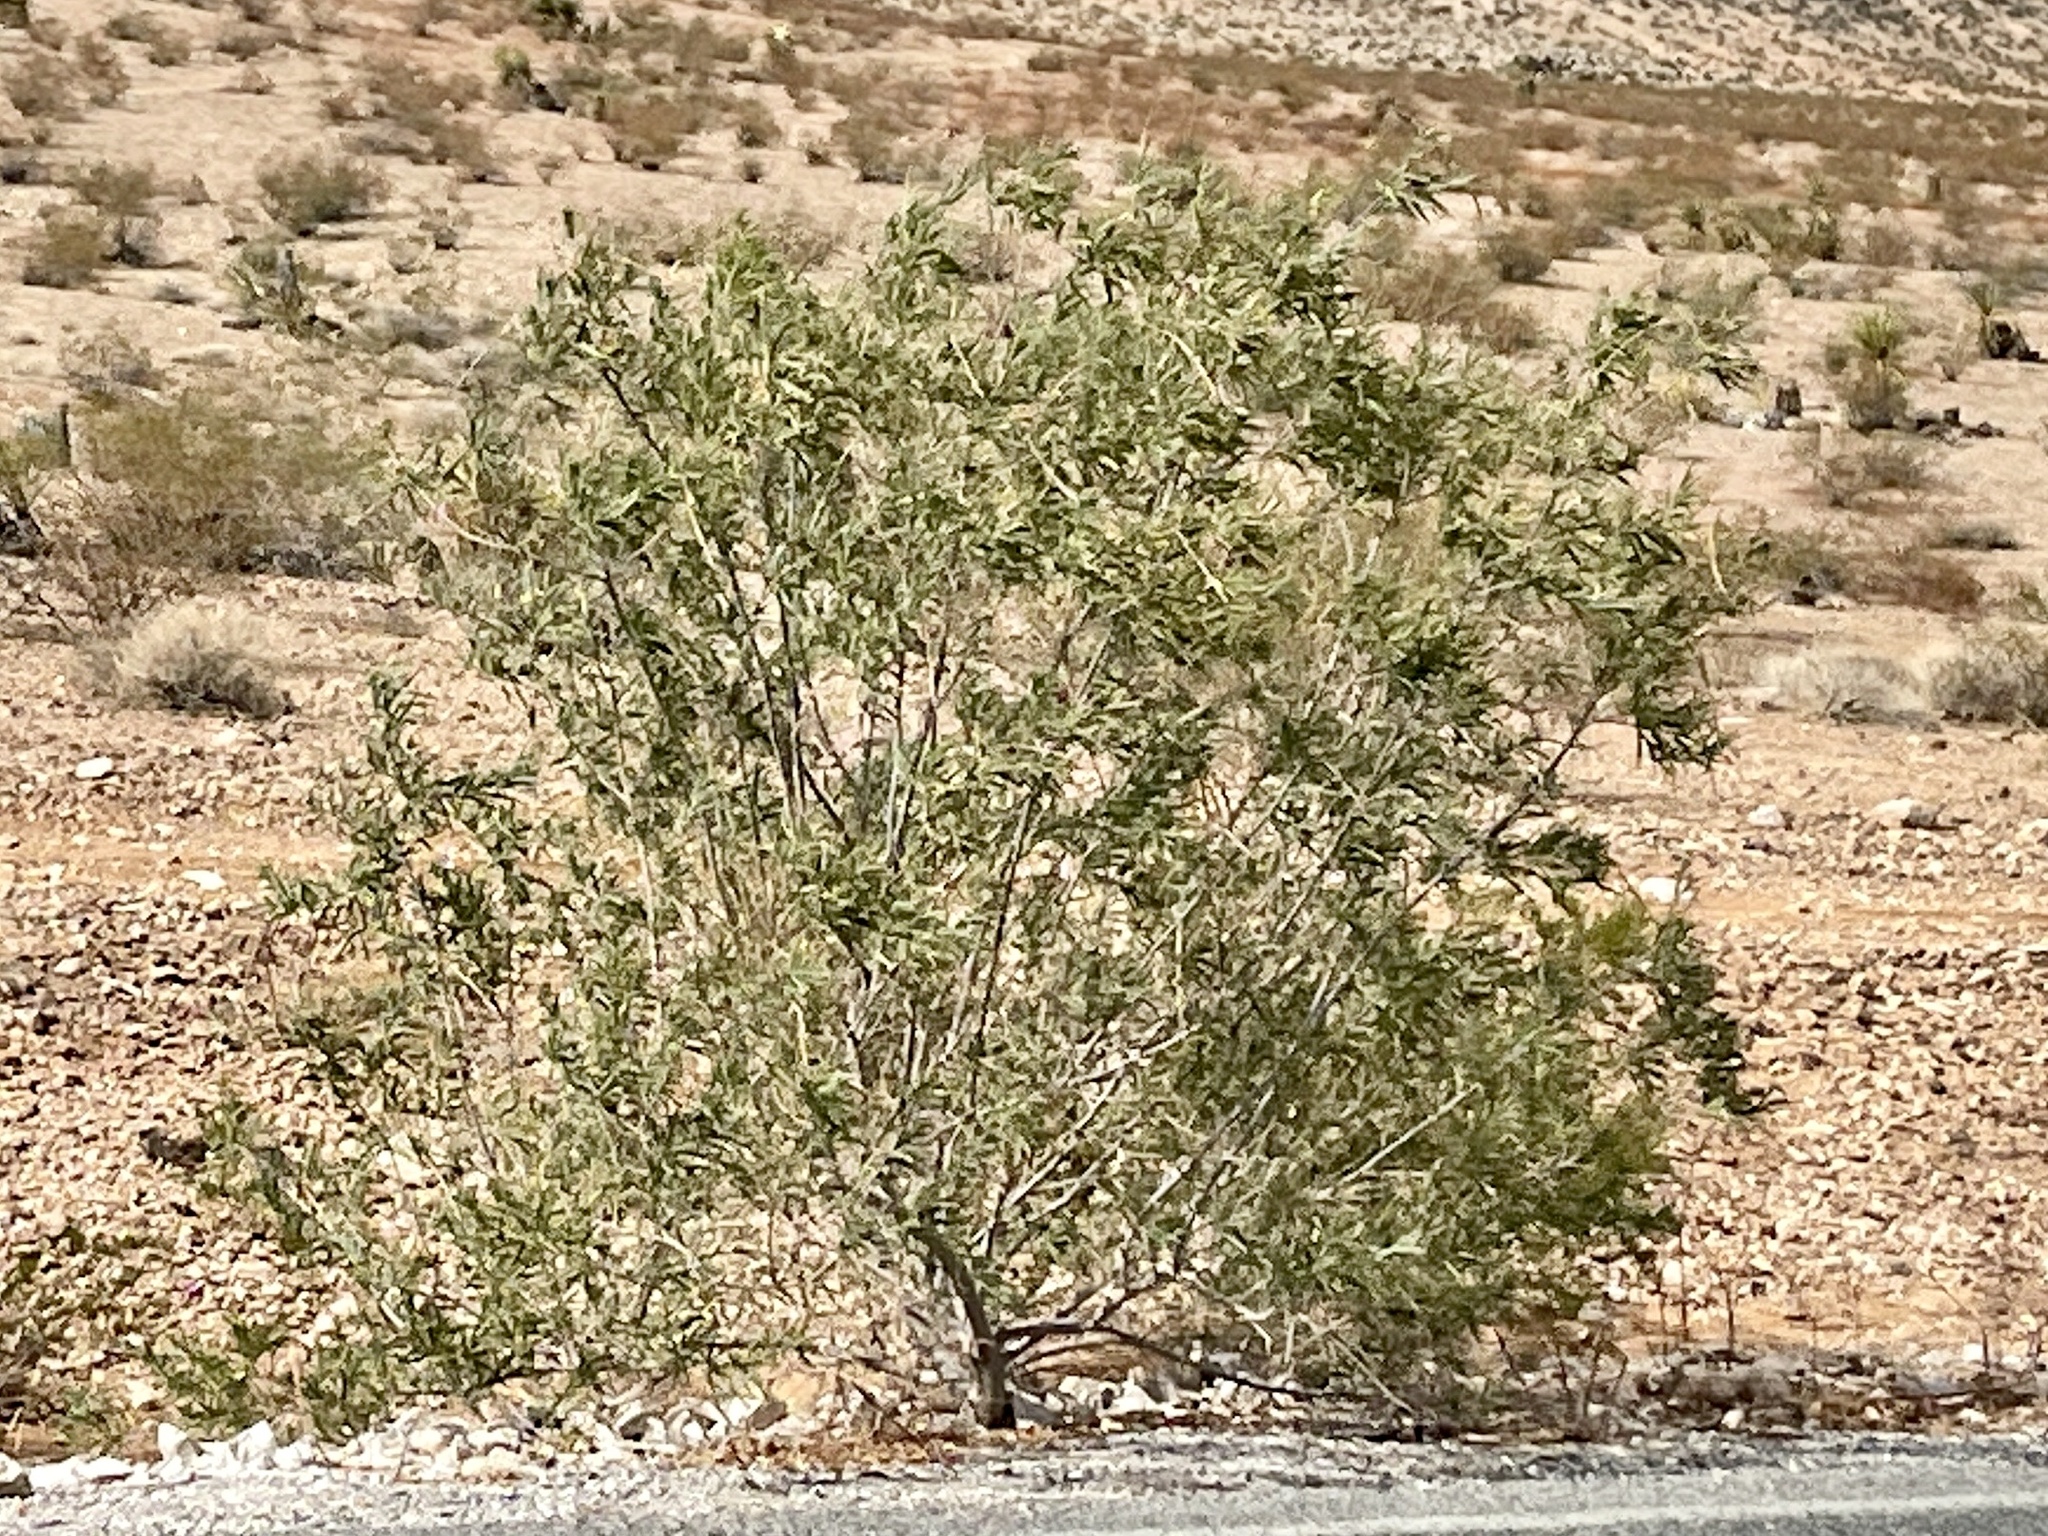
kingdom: Plantae
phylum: Tracheophyta
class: Magnoliopsida
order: Lamiales
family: Bignoniaceae
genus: Chilopsis
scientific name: Chilopsis linearis
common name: Desert-willow
